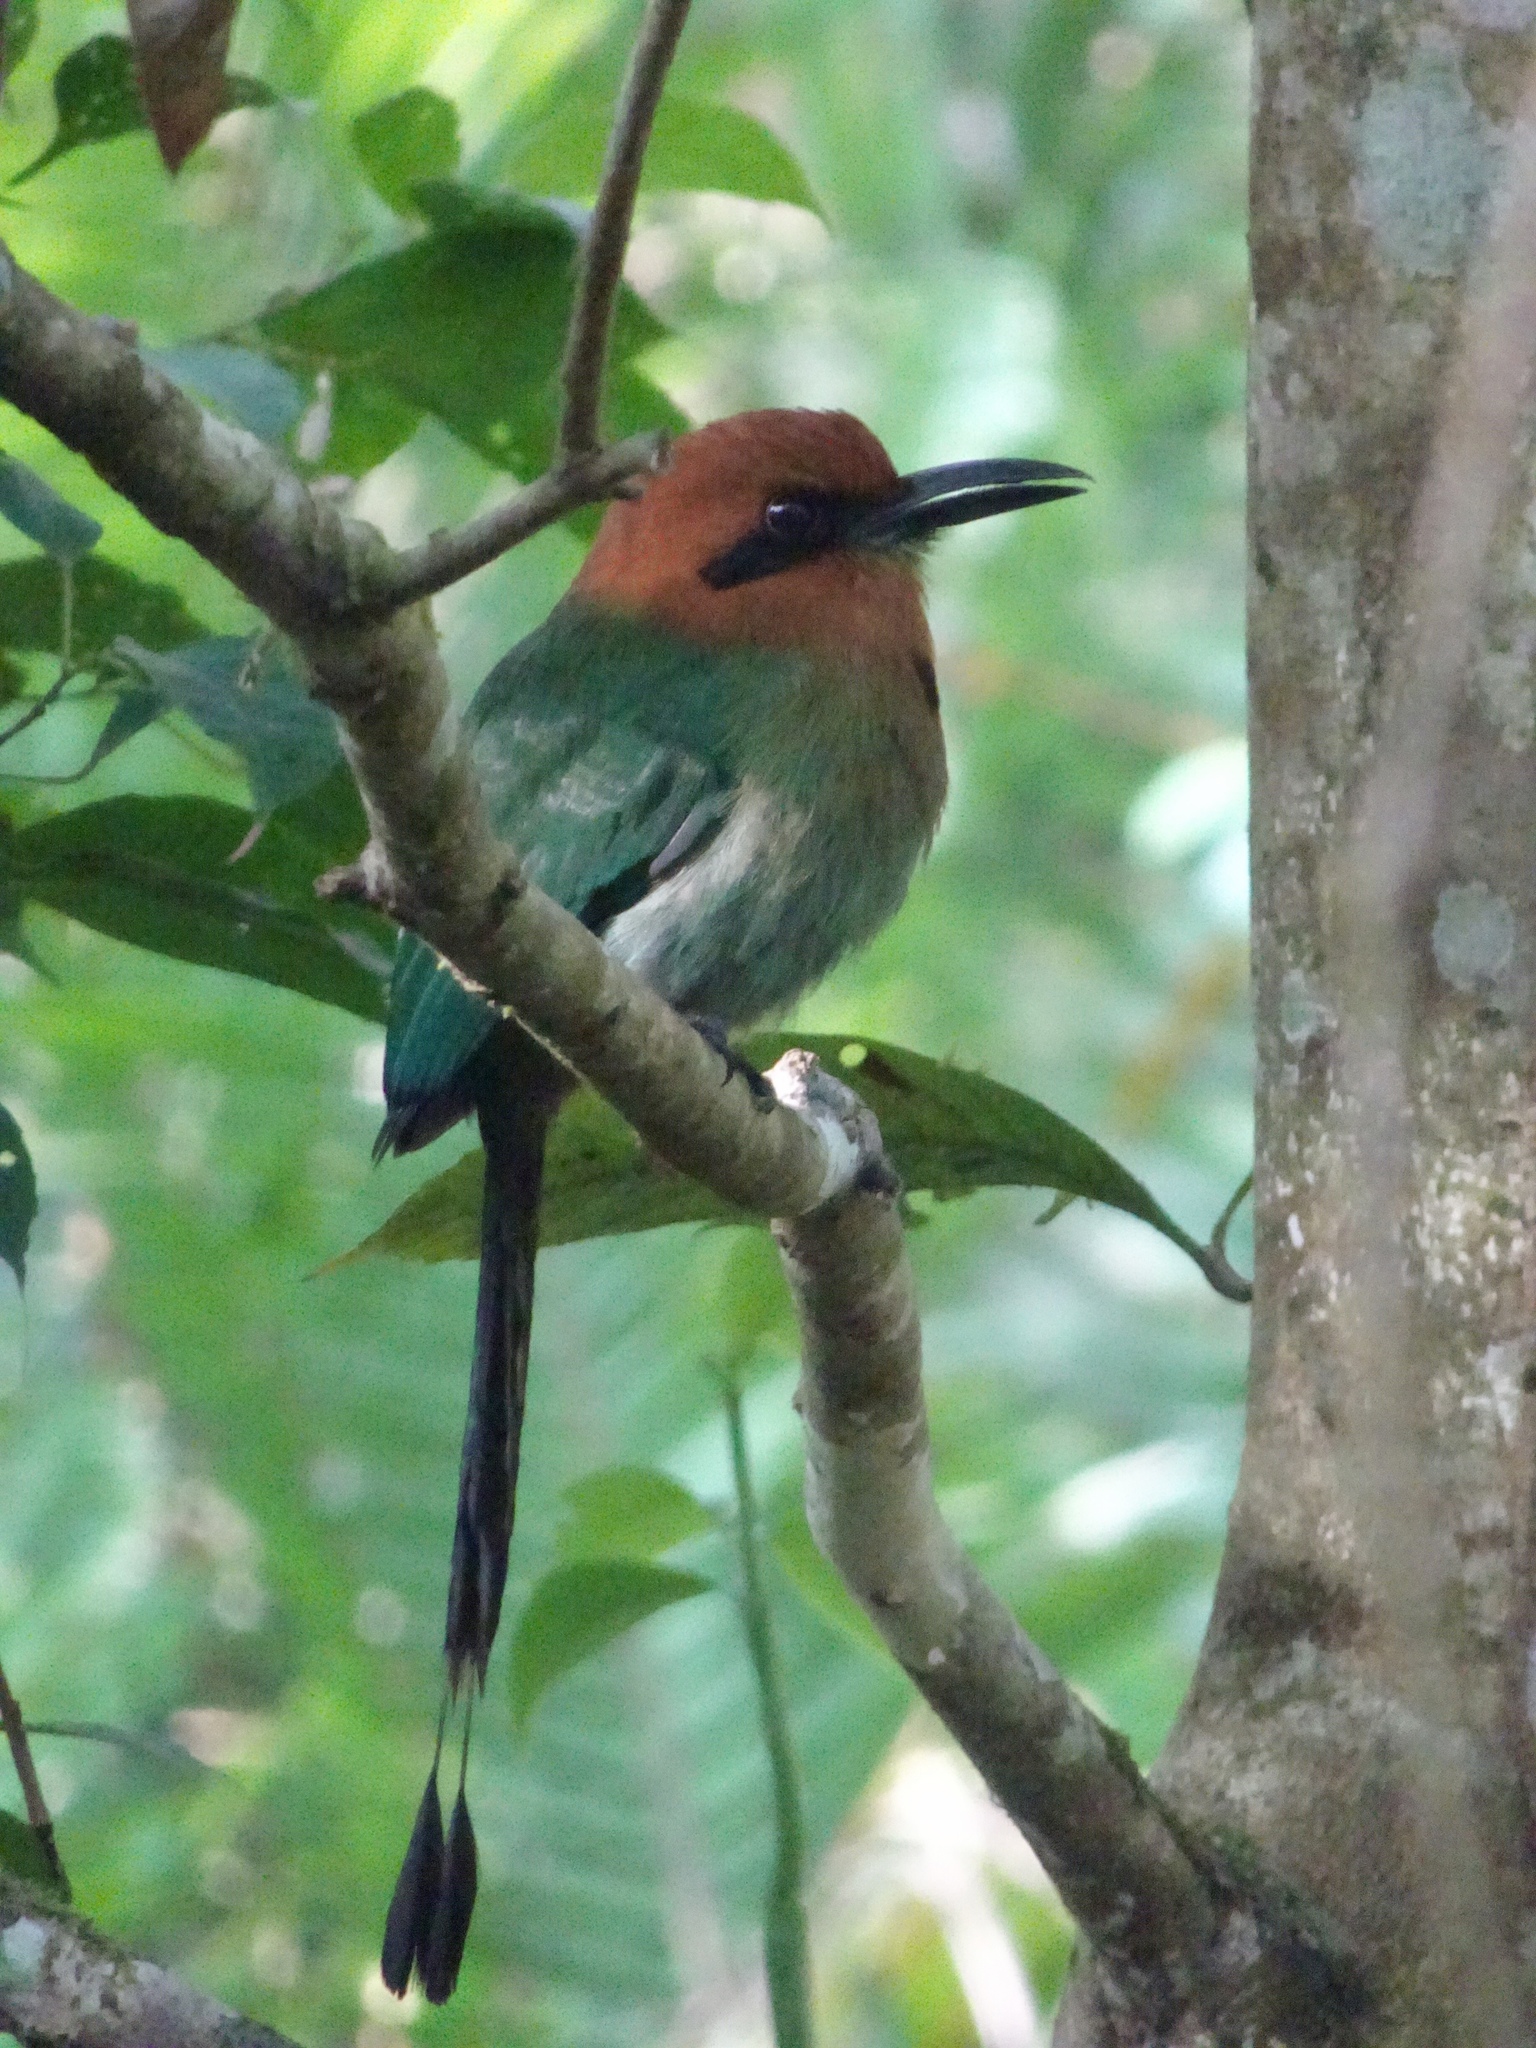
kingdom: Animalia
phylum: Chordata
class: Aves
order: Coraciiformes
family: Momotidae
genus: Electron
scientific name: Electron platyrhynchum
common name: Broad-billed motmot
